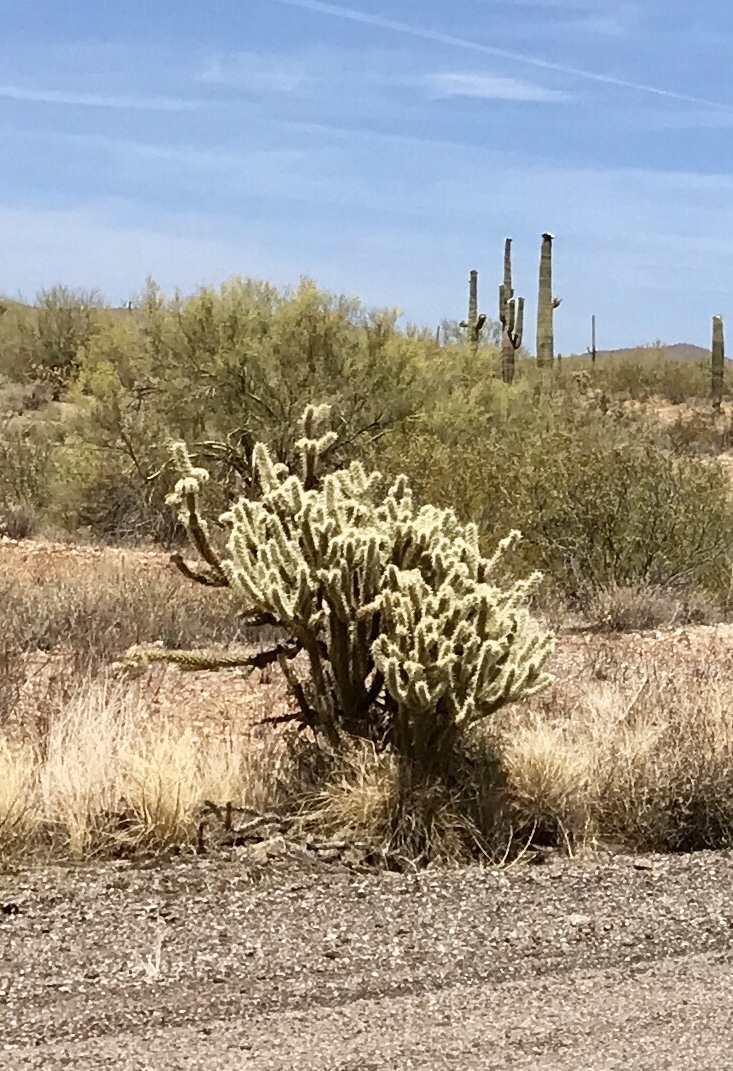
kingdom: Plantae
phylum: Tracheophyta
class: Magnoliopsida
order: Caryophyllales
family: Cactaceae
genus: Cylindropuntia
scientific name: Cylindropuntia fosbergii
